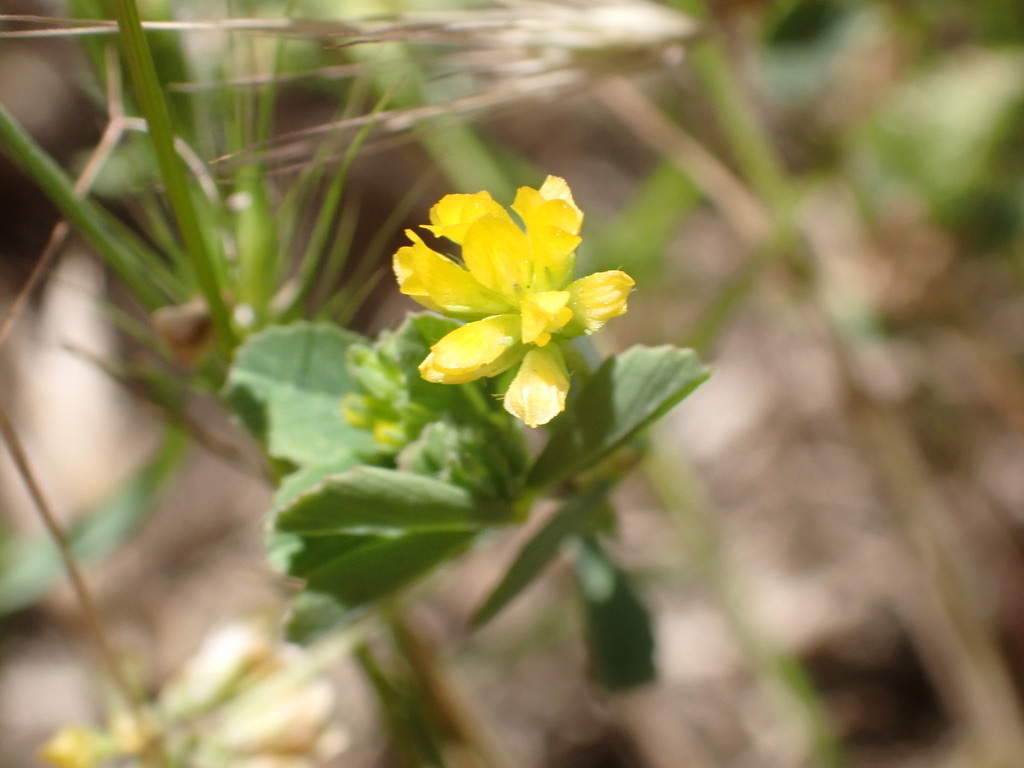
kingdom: Plantae
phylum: Tracheophyta
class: Magnoliopsida
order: Fabales
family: Fabaceae
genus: Trifolium
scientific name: Trifolium dubium
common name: Suckling clover
